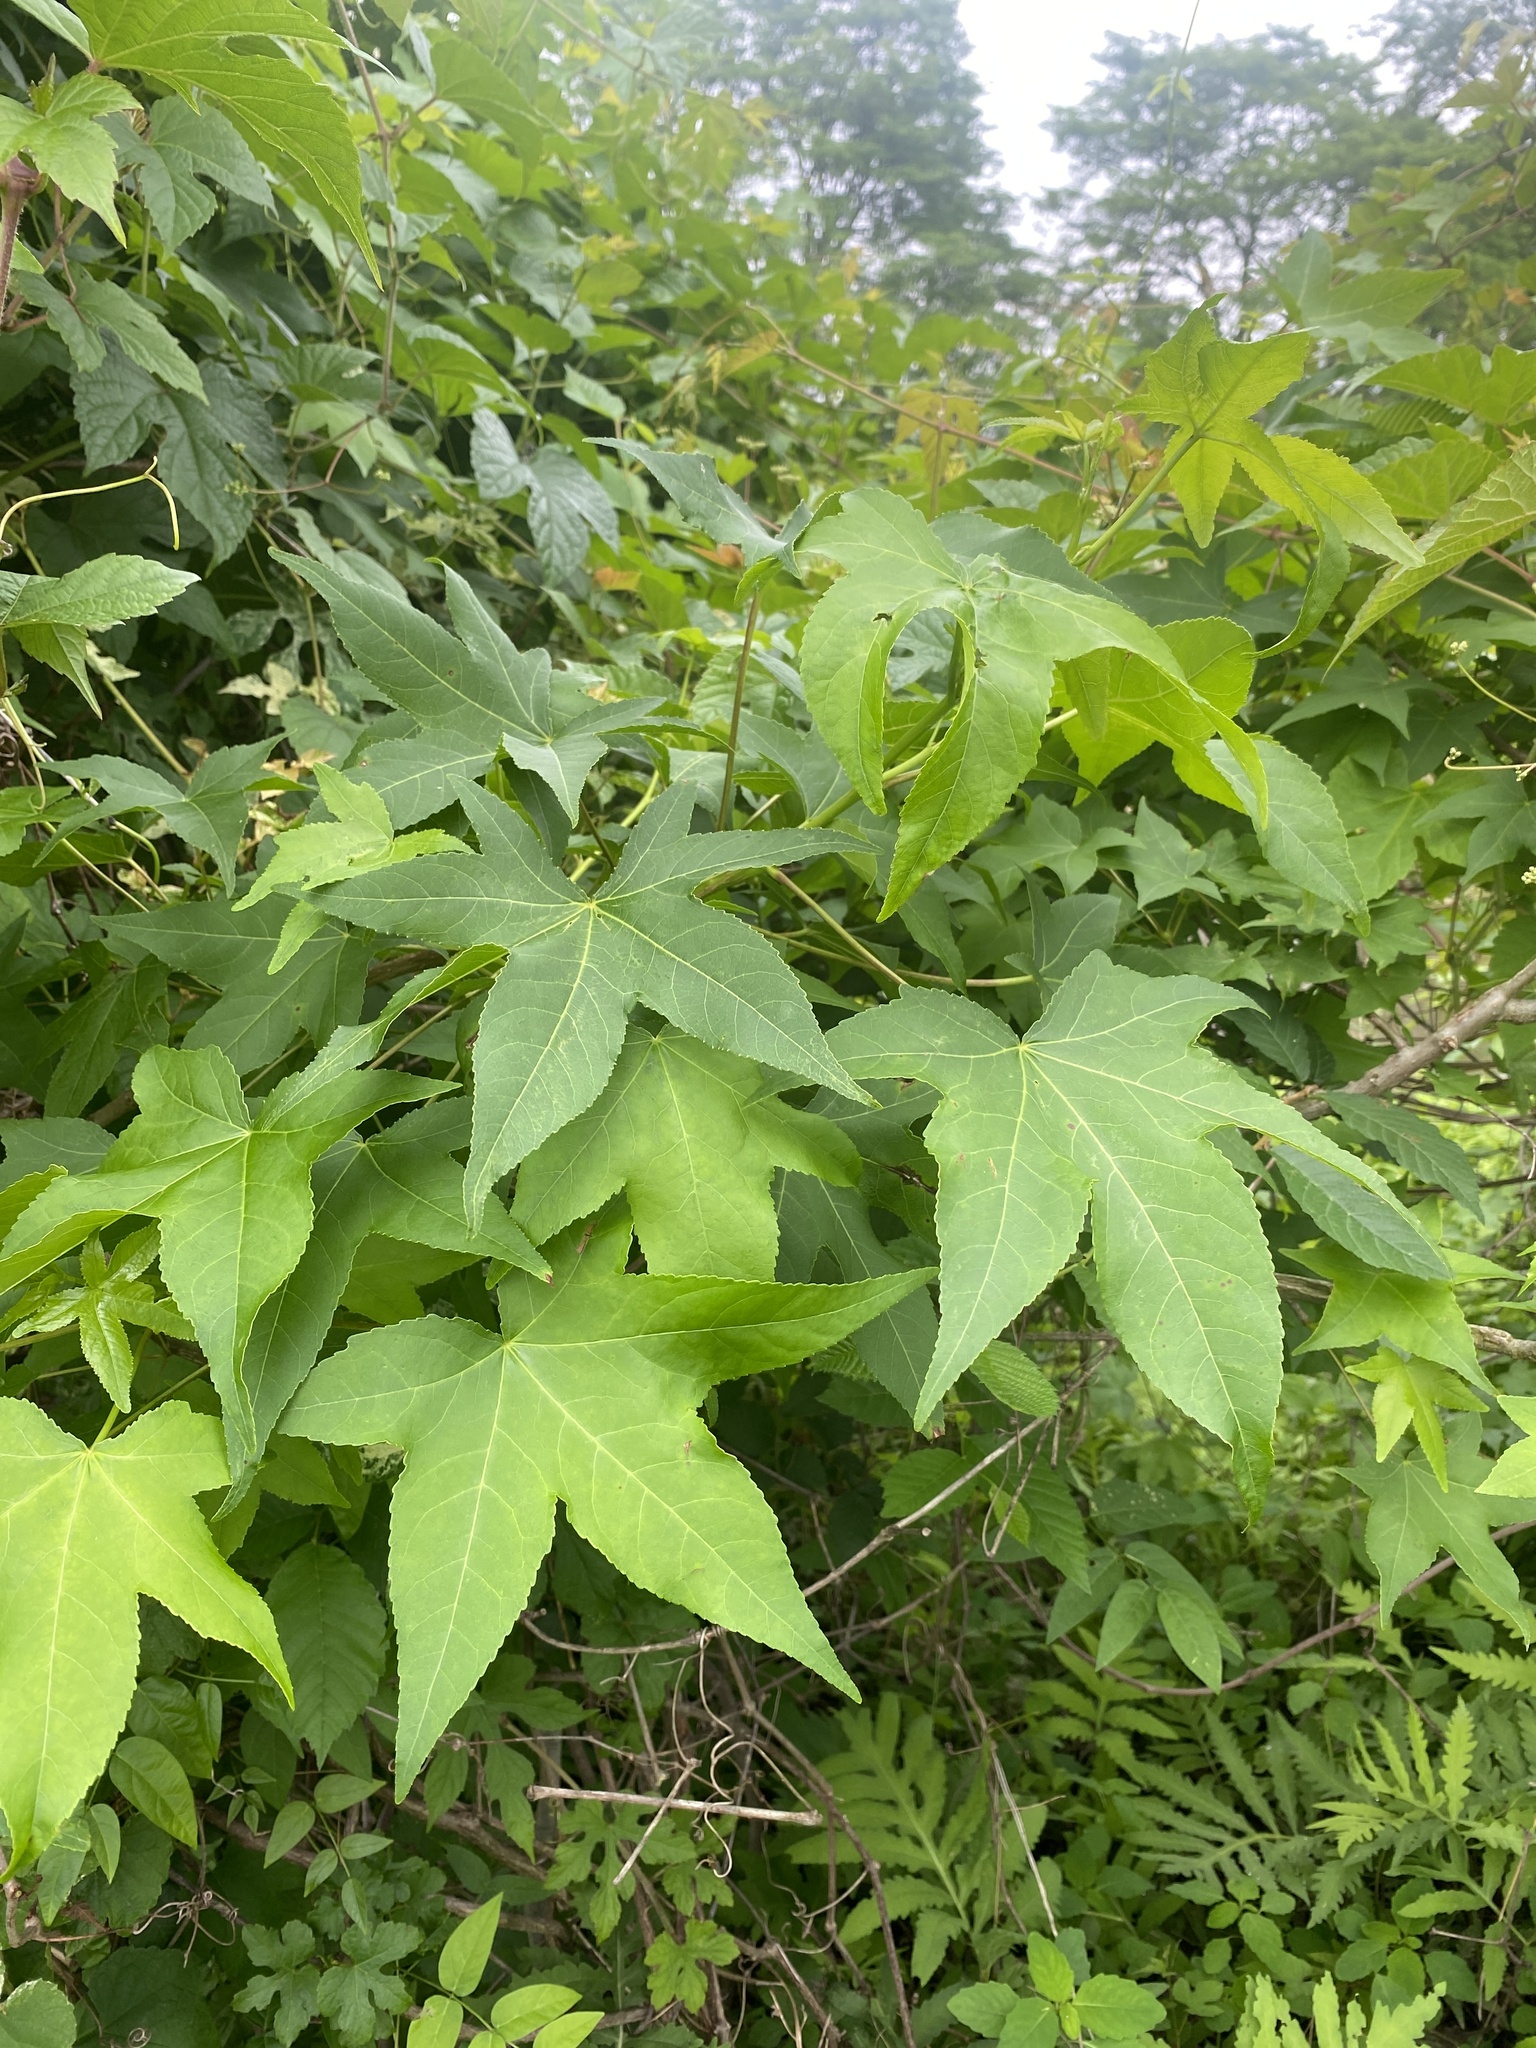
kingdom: Plantae
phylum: Tracheophyta
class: Magnoliopsida
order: Saxifragales
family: Altingiaceae
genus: Liquidambar
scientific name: Liquidambar styraciflua
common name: Sweet gum
